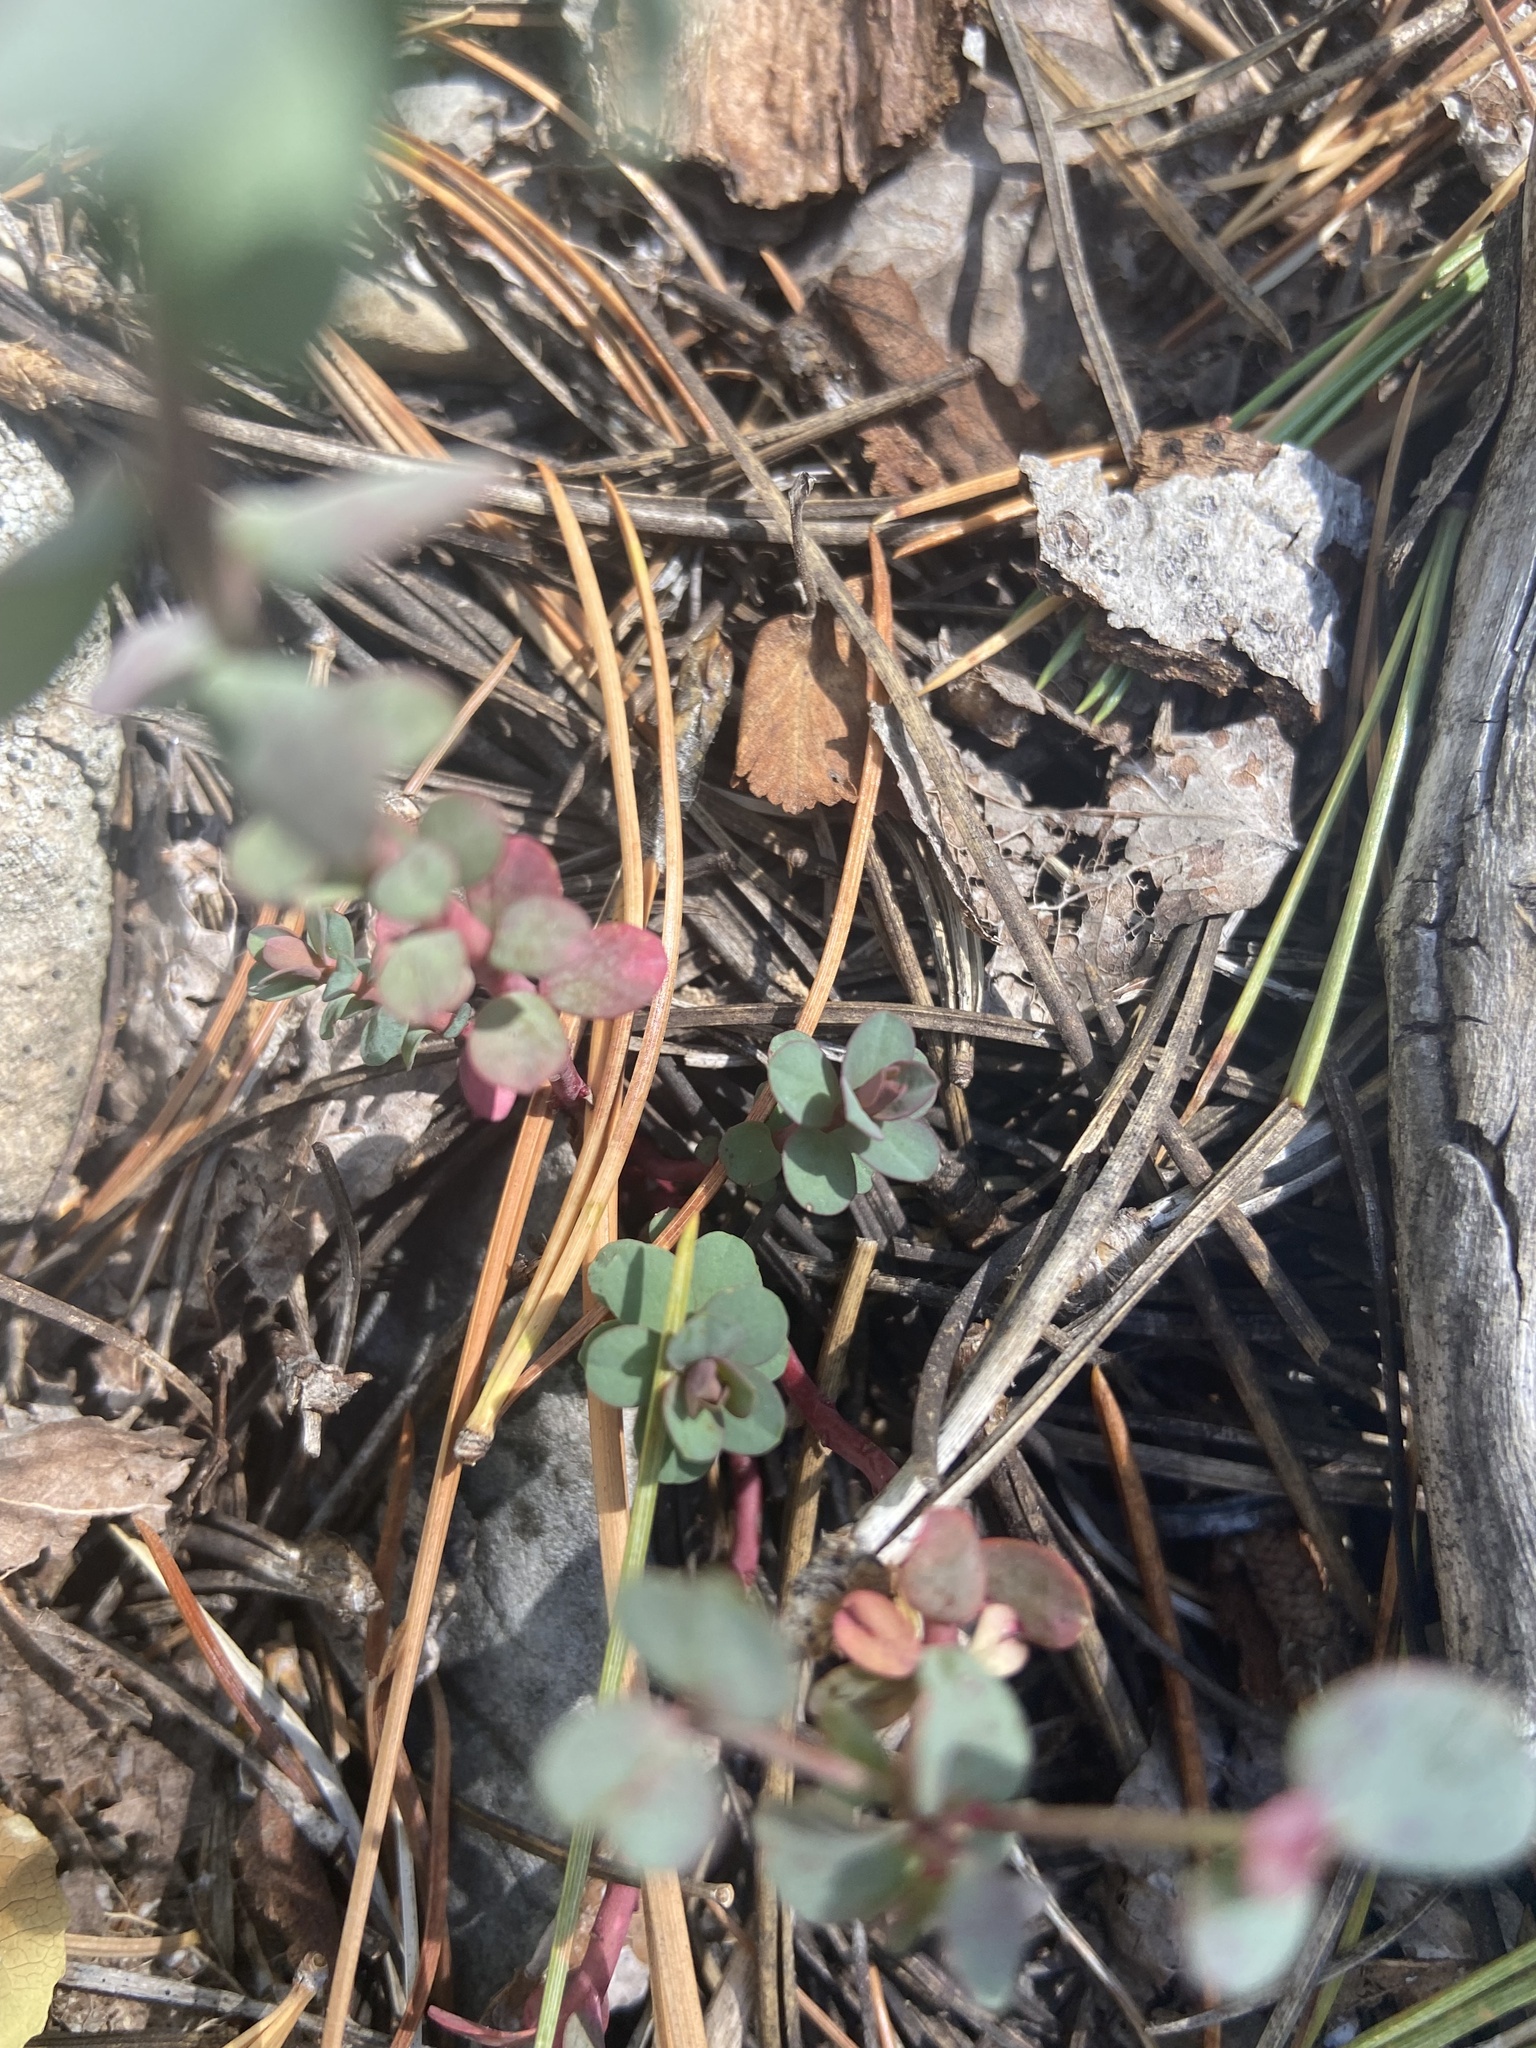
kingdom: Plantae
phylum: Tracheophyta
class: Magnoliopsida
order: Malpighiales
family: Euphorbiaceae
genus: Euphorbia
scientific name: Euphorbia brachycera
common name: Shorthorn spurge
